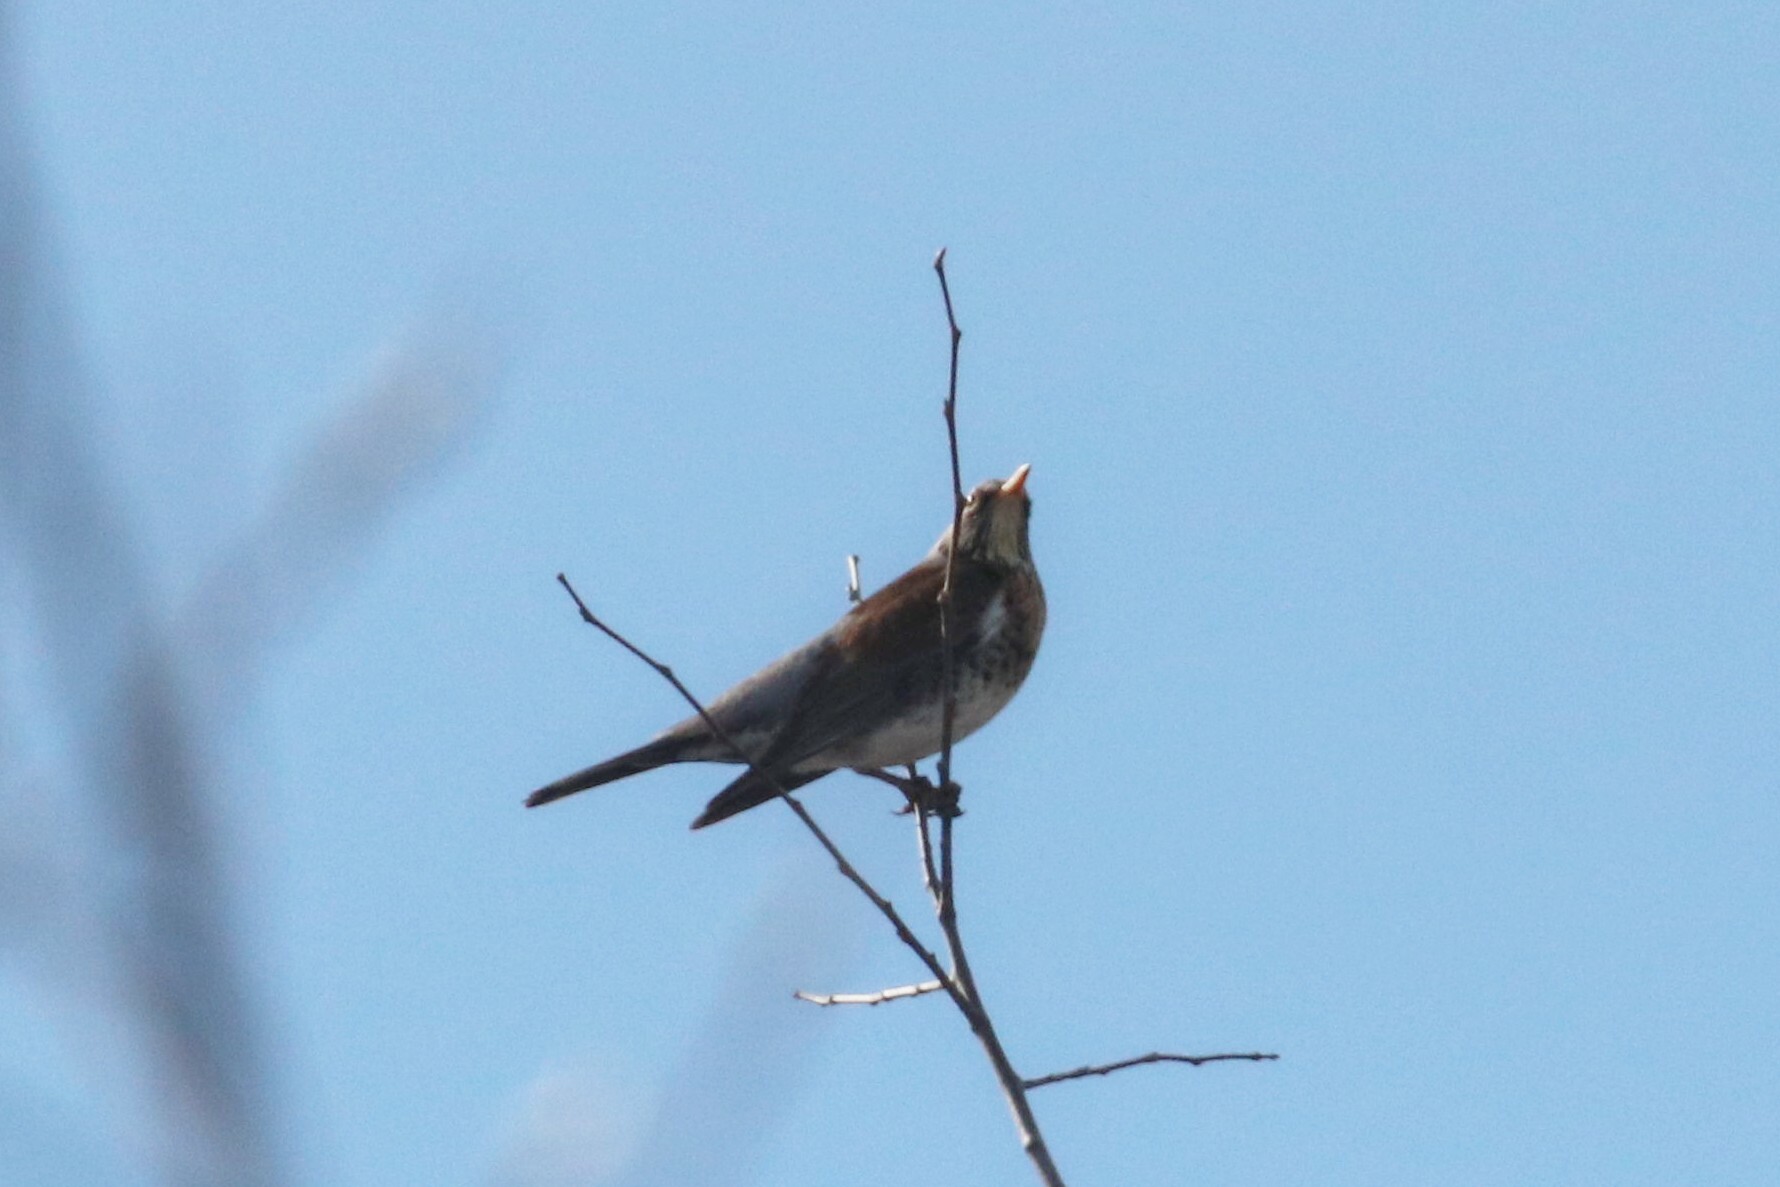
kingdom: Animalia
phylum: Chordata
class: Aves
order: Passeriformes
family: Turdidae
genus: Turdus
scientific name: Turdus pilaris
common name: Fieldfare
